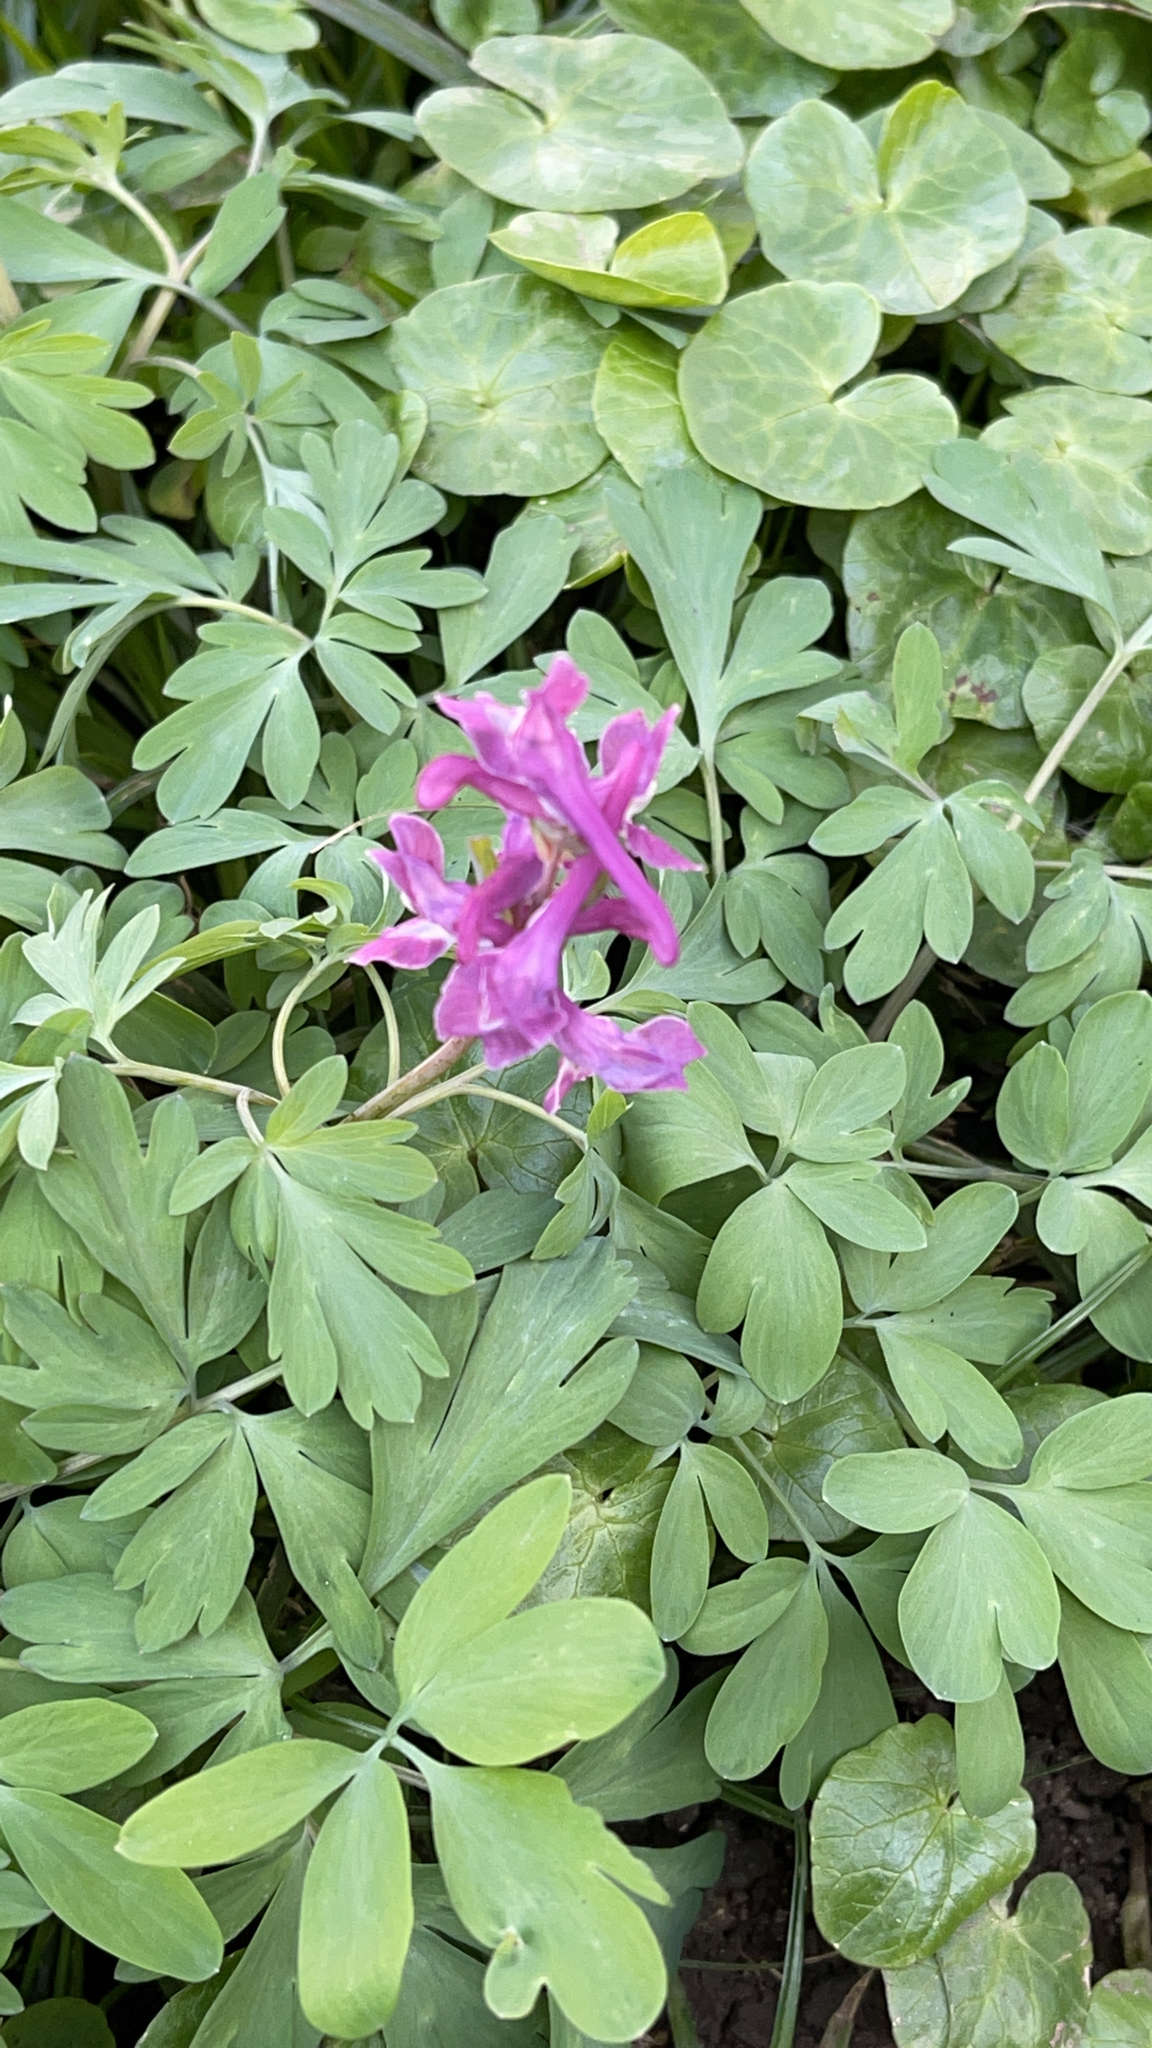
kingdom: Plantae
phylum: Tracheophyta
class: Magnoliopsida
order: Ranunculales
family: Papaveraceae
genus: Corydalis
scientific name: Corydalis cava
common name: Hollowroot
